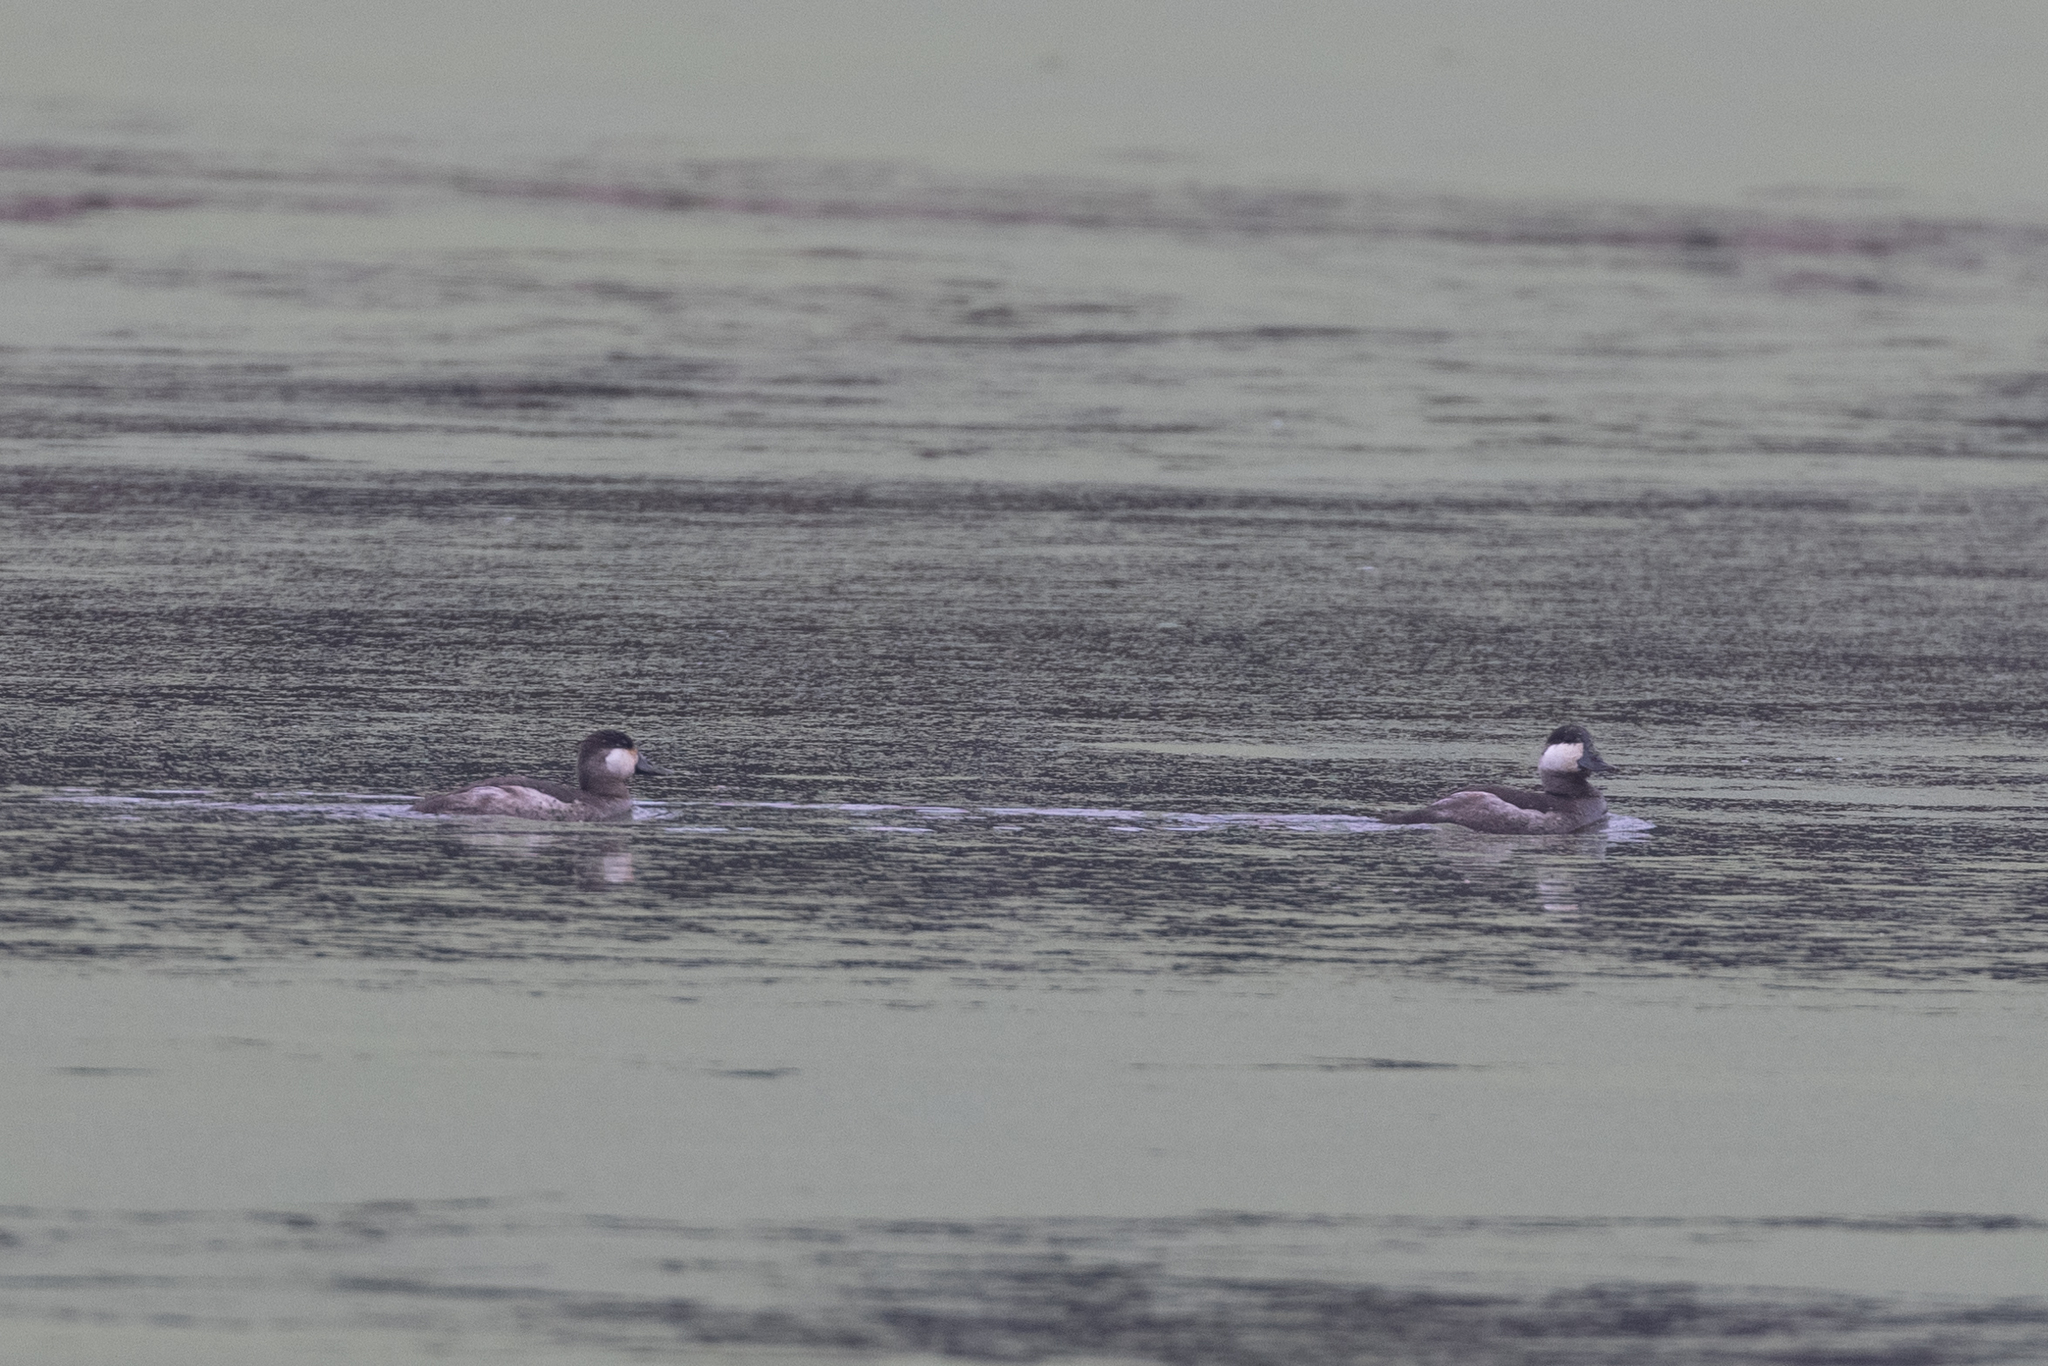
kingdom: Animalia
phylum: Chordata
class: Aves
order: Anseriformes
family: Anatidae
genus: Oxyura
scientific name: Oxyura jamaicensis
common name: Ruddy duck
